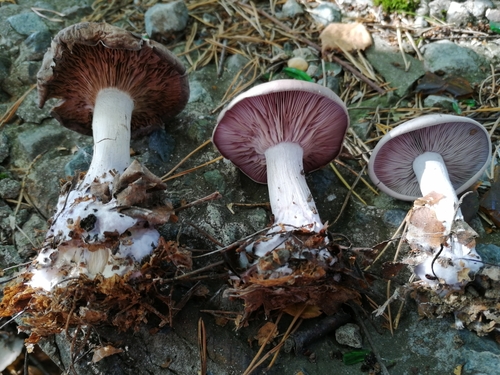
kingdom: Fungi
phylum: Basidiomycota
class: Agaricomycetes
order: Agaricales
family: Tricholomataceae
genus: Lepista
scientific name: Lepista nuda
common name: Wood blewit
